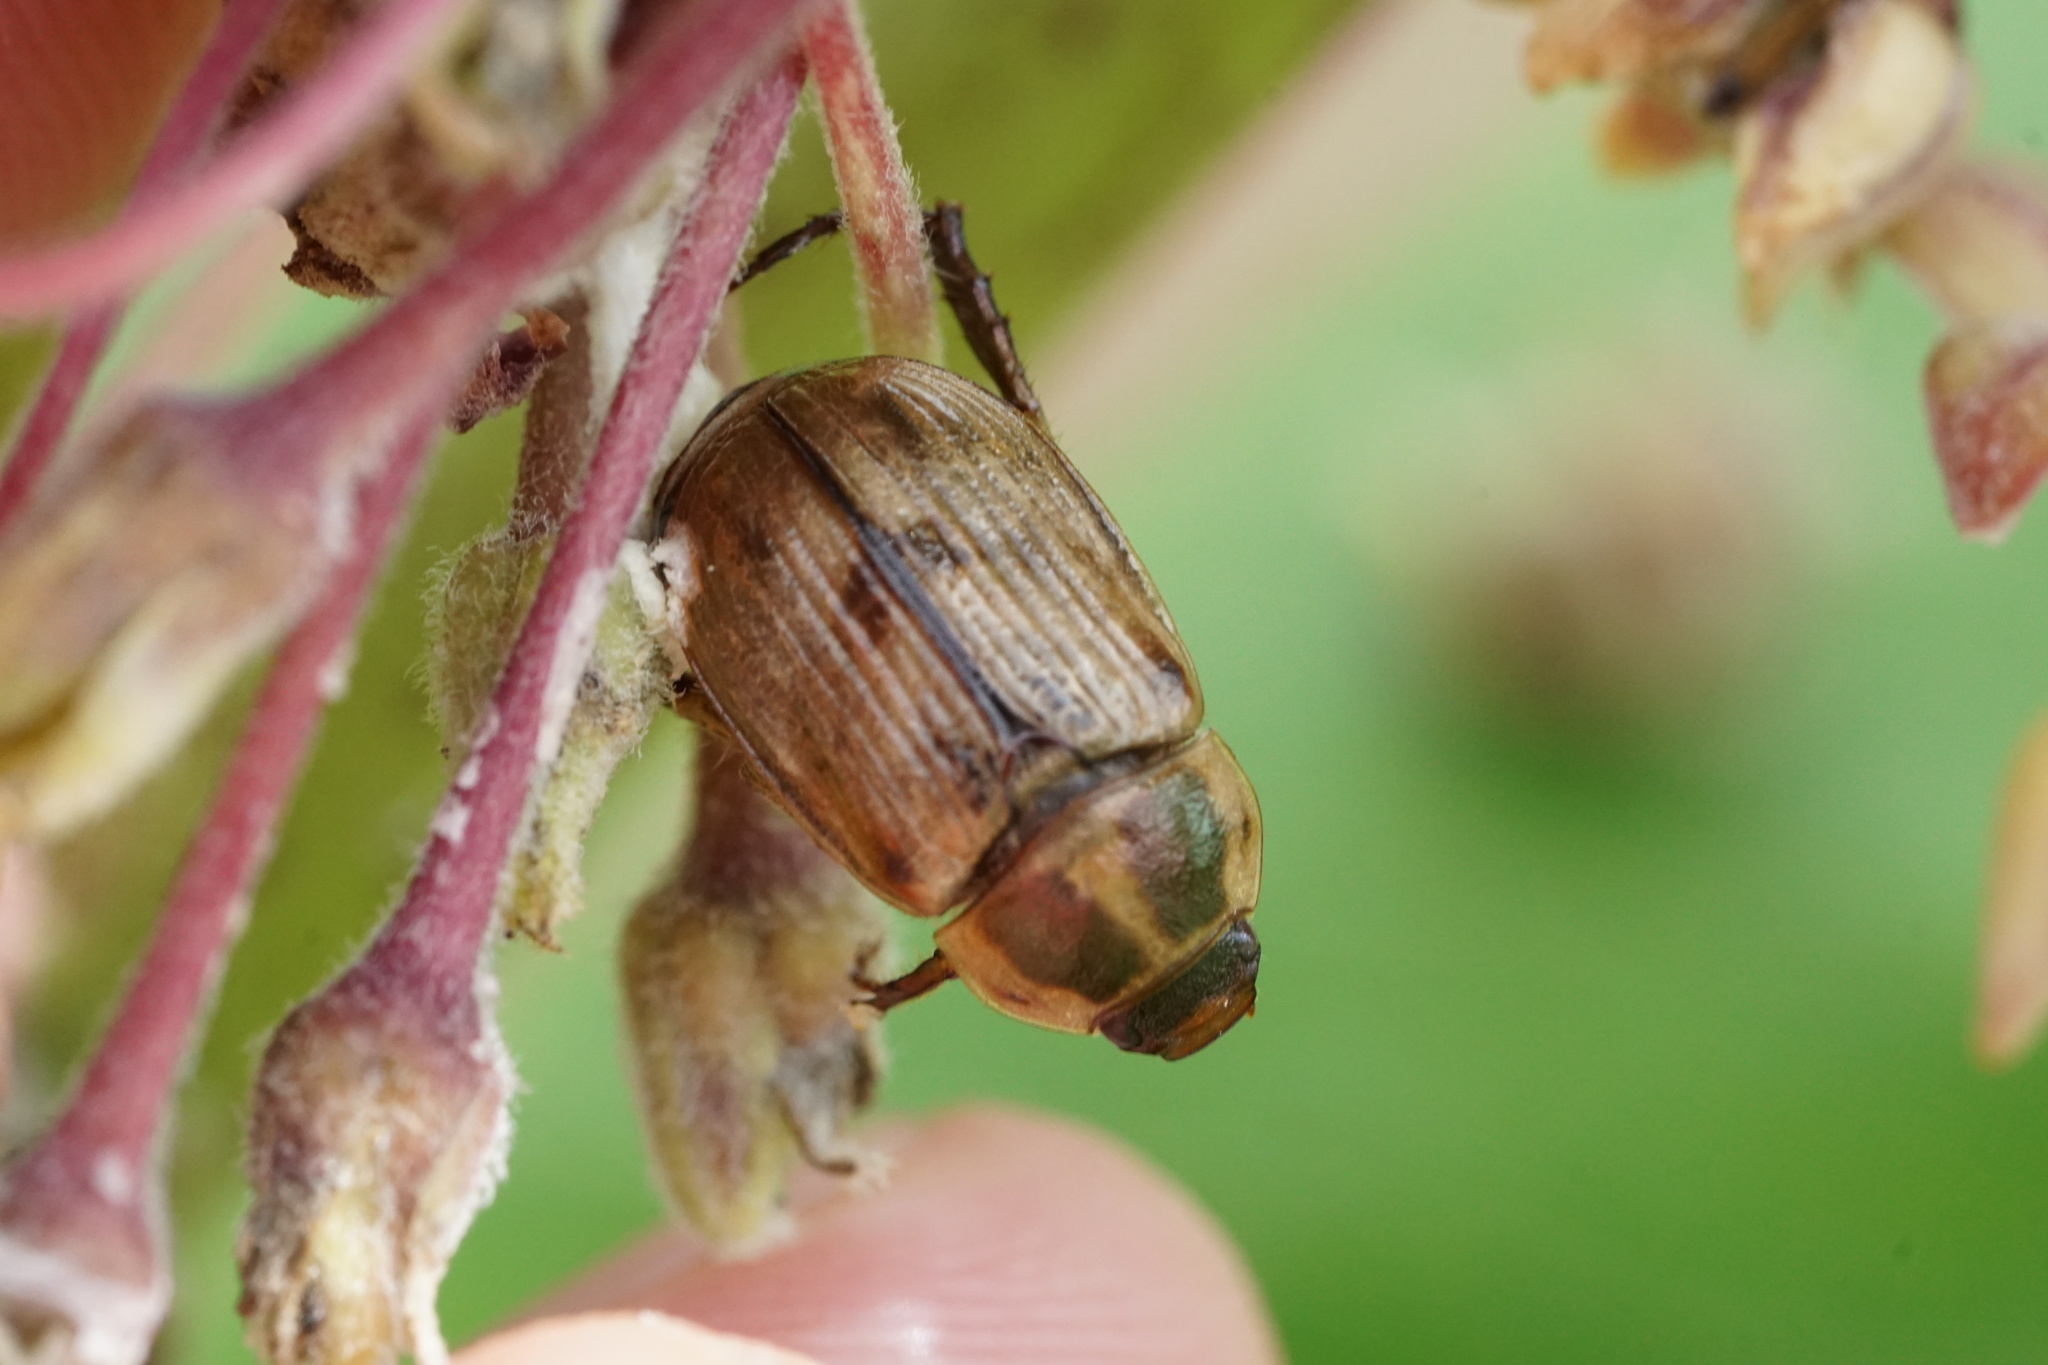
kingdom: Animalia
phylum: Arthropoda
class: Insecta
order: Coleoptera
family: Scarabaeidae
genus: Exomala
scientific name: Exomala orientalis
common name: Oriental beetle
